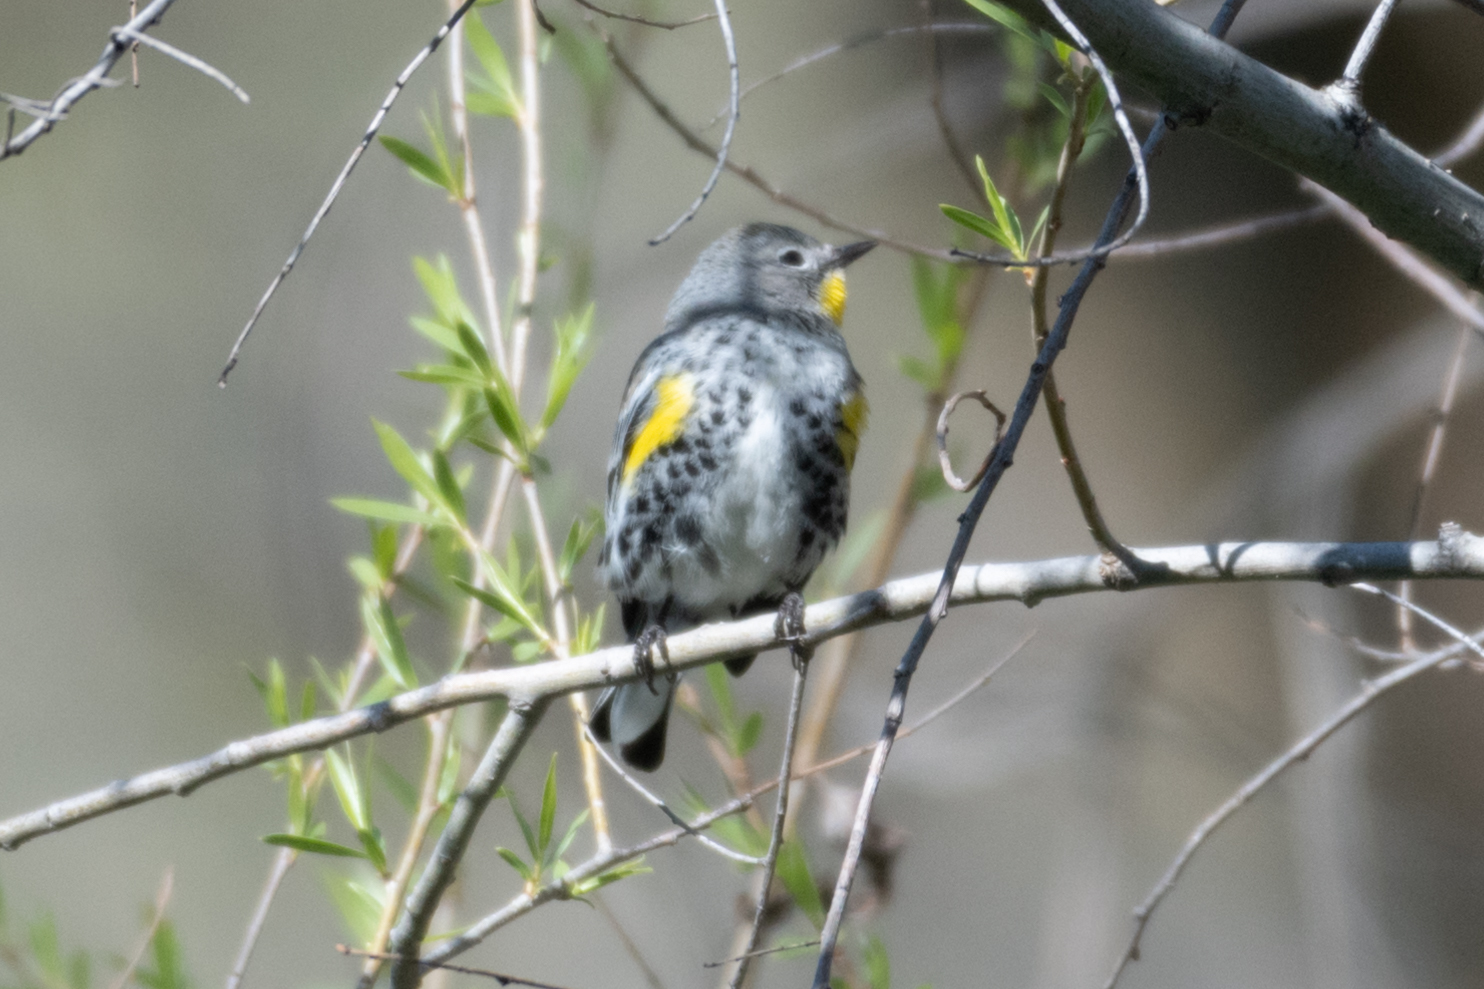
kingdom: Animalia
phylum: Chordata
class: Aves
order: Passeriformes
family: Parulidae
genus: Setophaga
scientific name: Setophaga coronata
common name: Myrtle warbler
